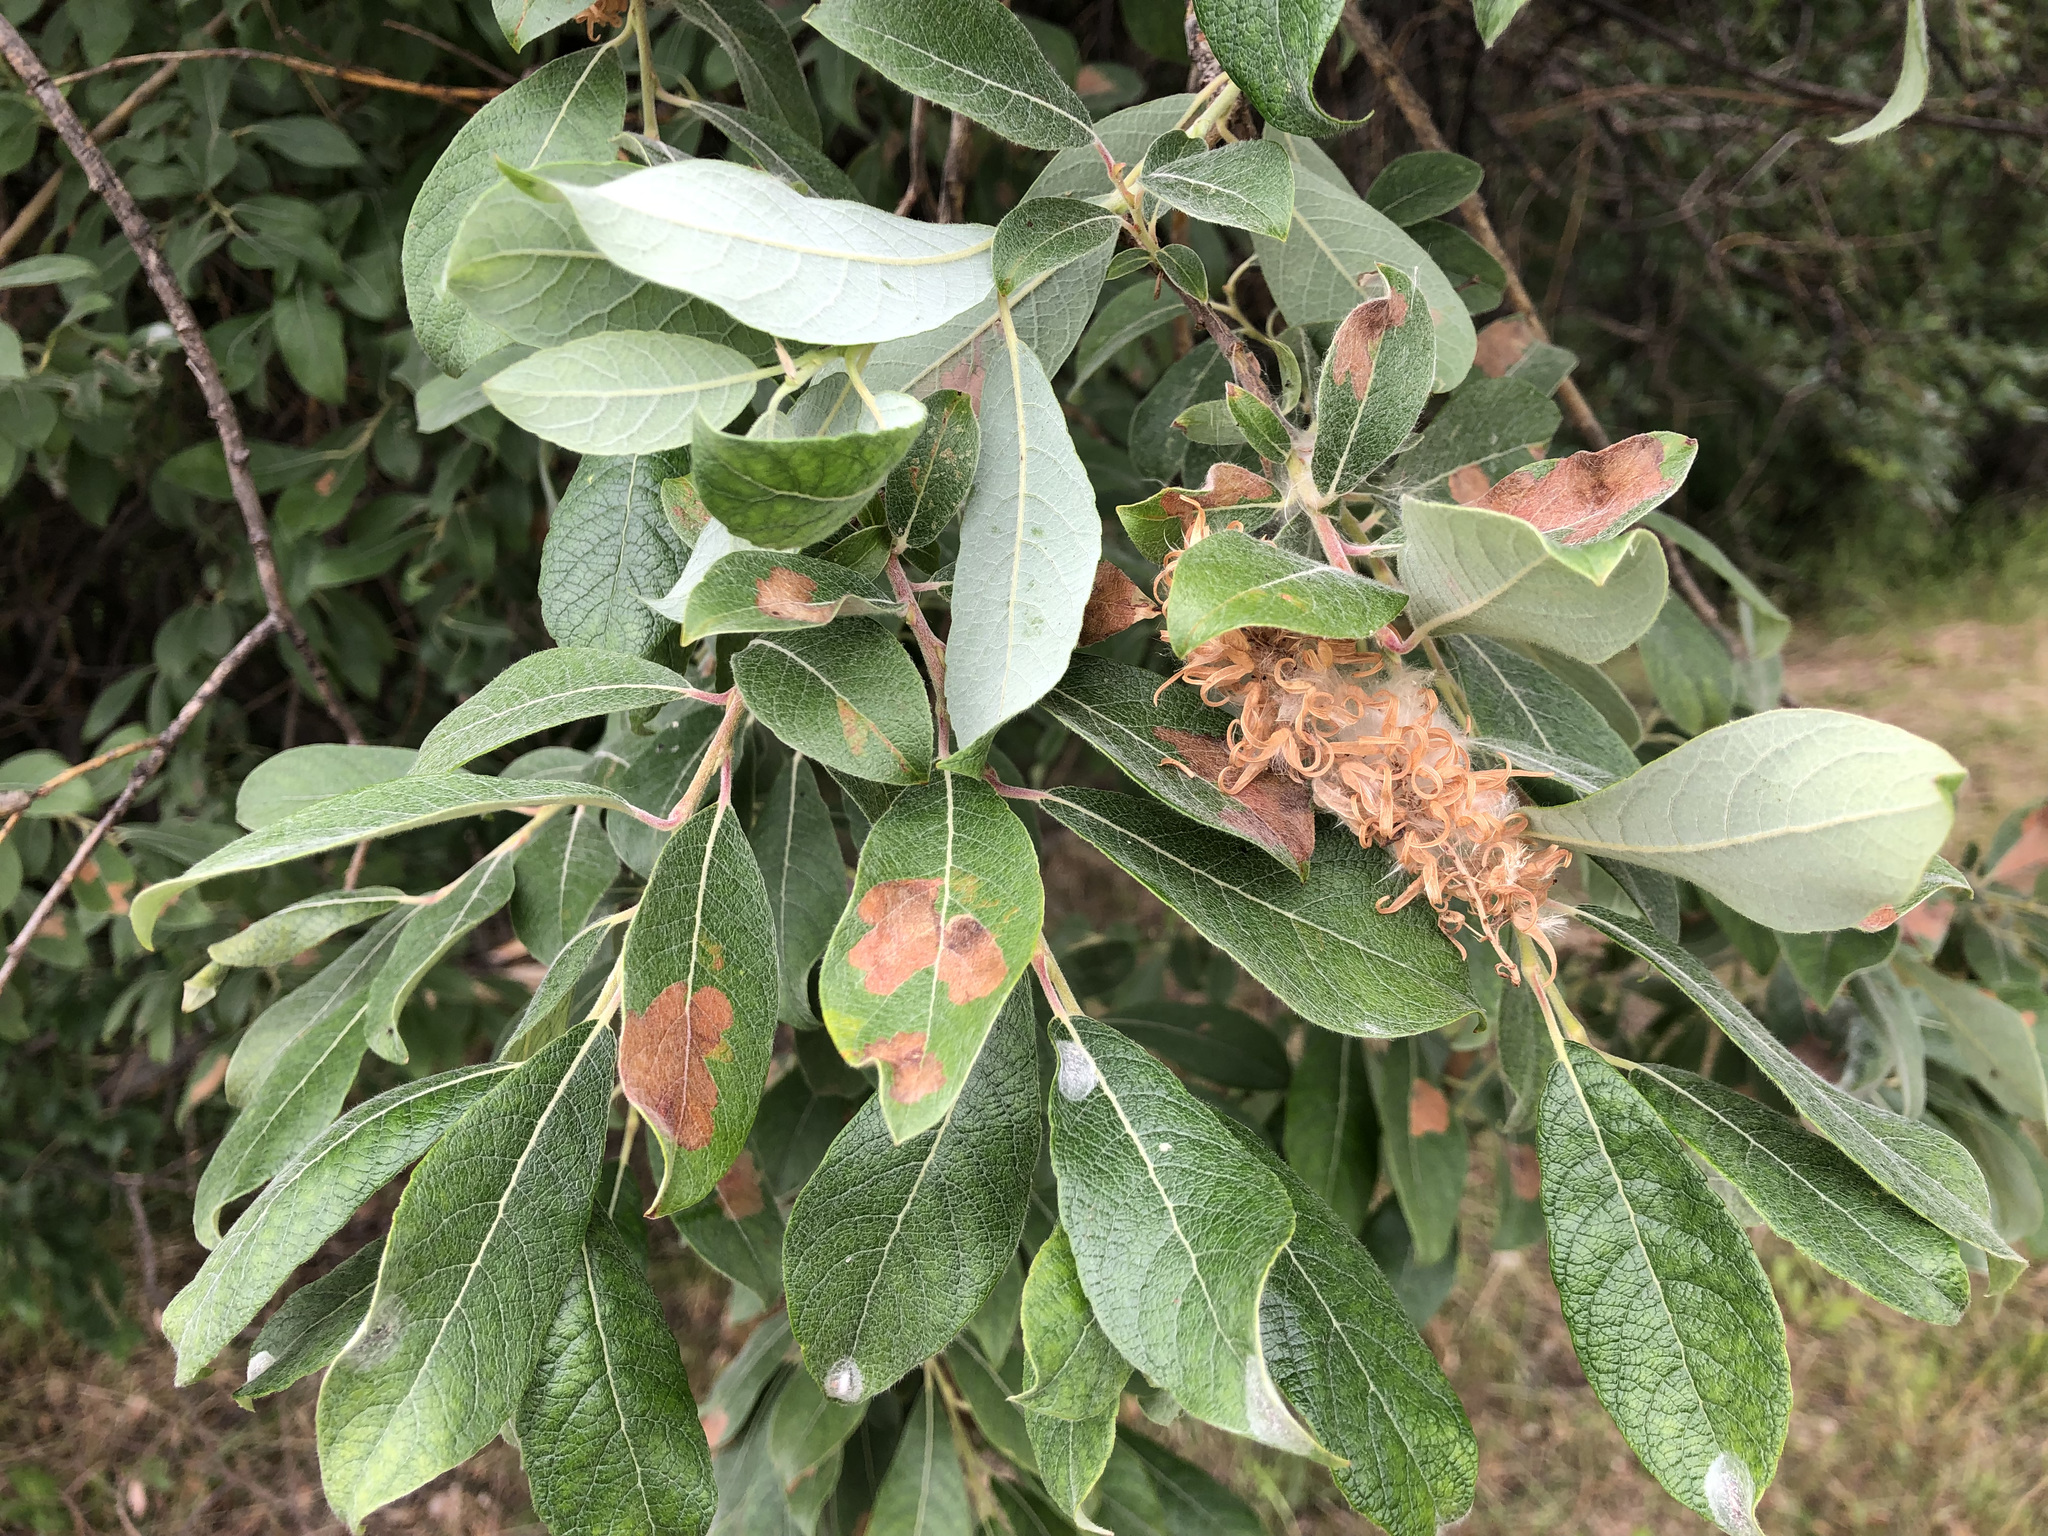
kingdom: Plantae
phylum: Tracheophyta
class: Magnoliopsida
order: Malpighiales
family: Salicaceae
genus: Salix
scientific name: Salix bebbiana
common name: Bebb's willow
